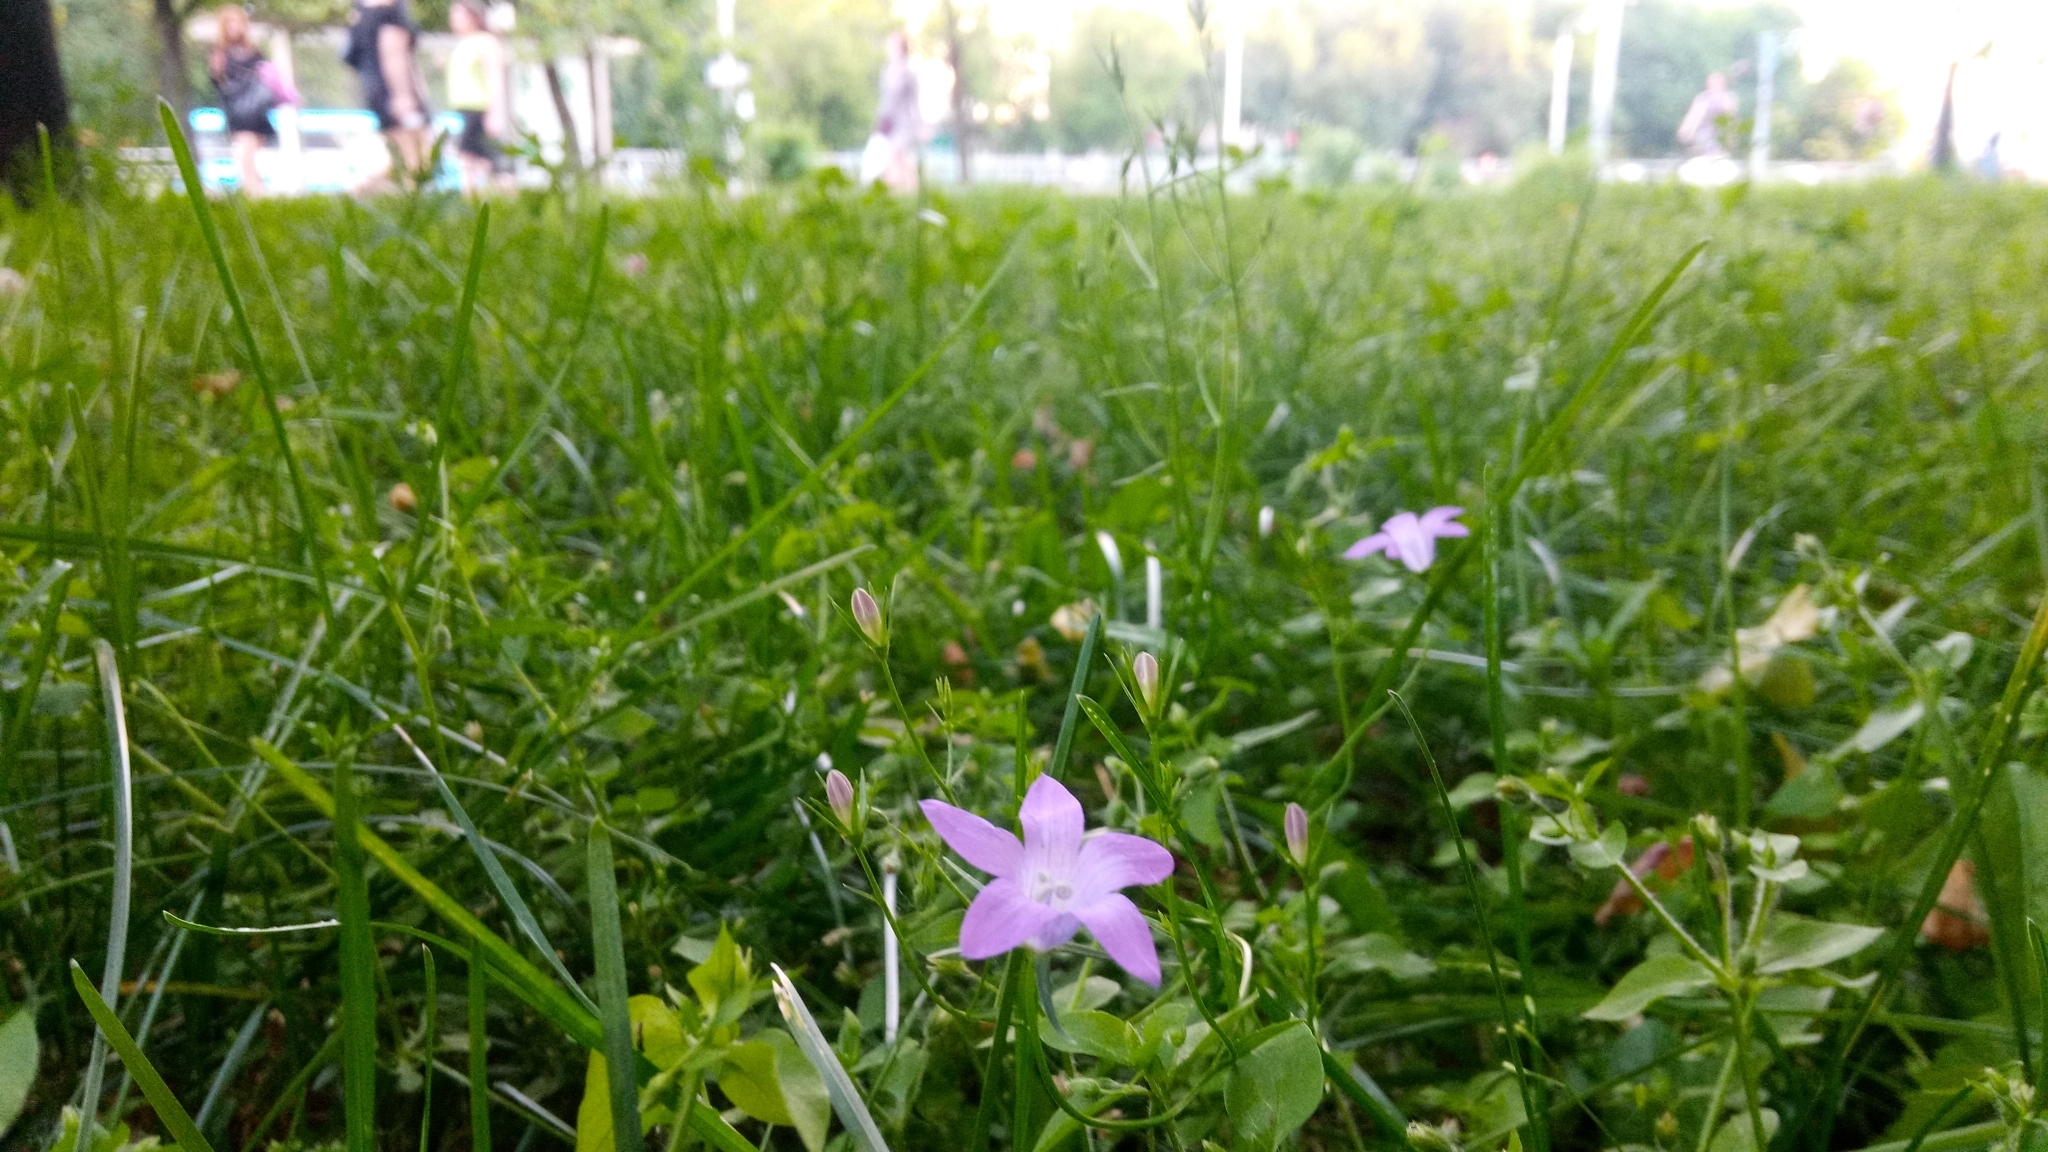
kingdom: Plantae
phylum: Tracheophyta
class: Magnoliopsida
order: Asterales
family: Campanulaceae
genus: Campanula
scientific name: Campanula patula
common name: Spreading bellflower
